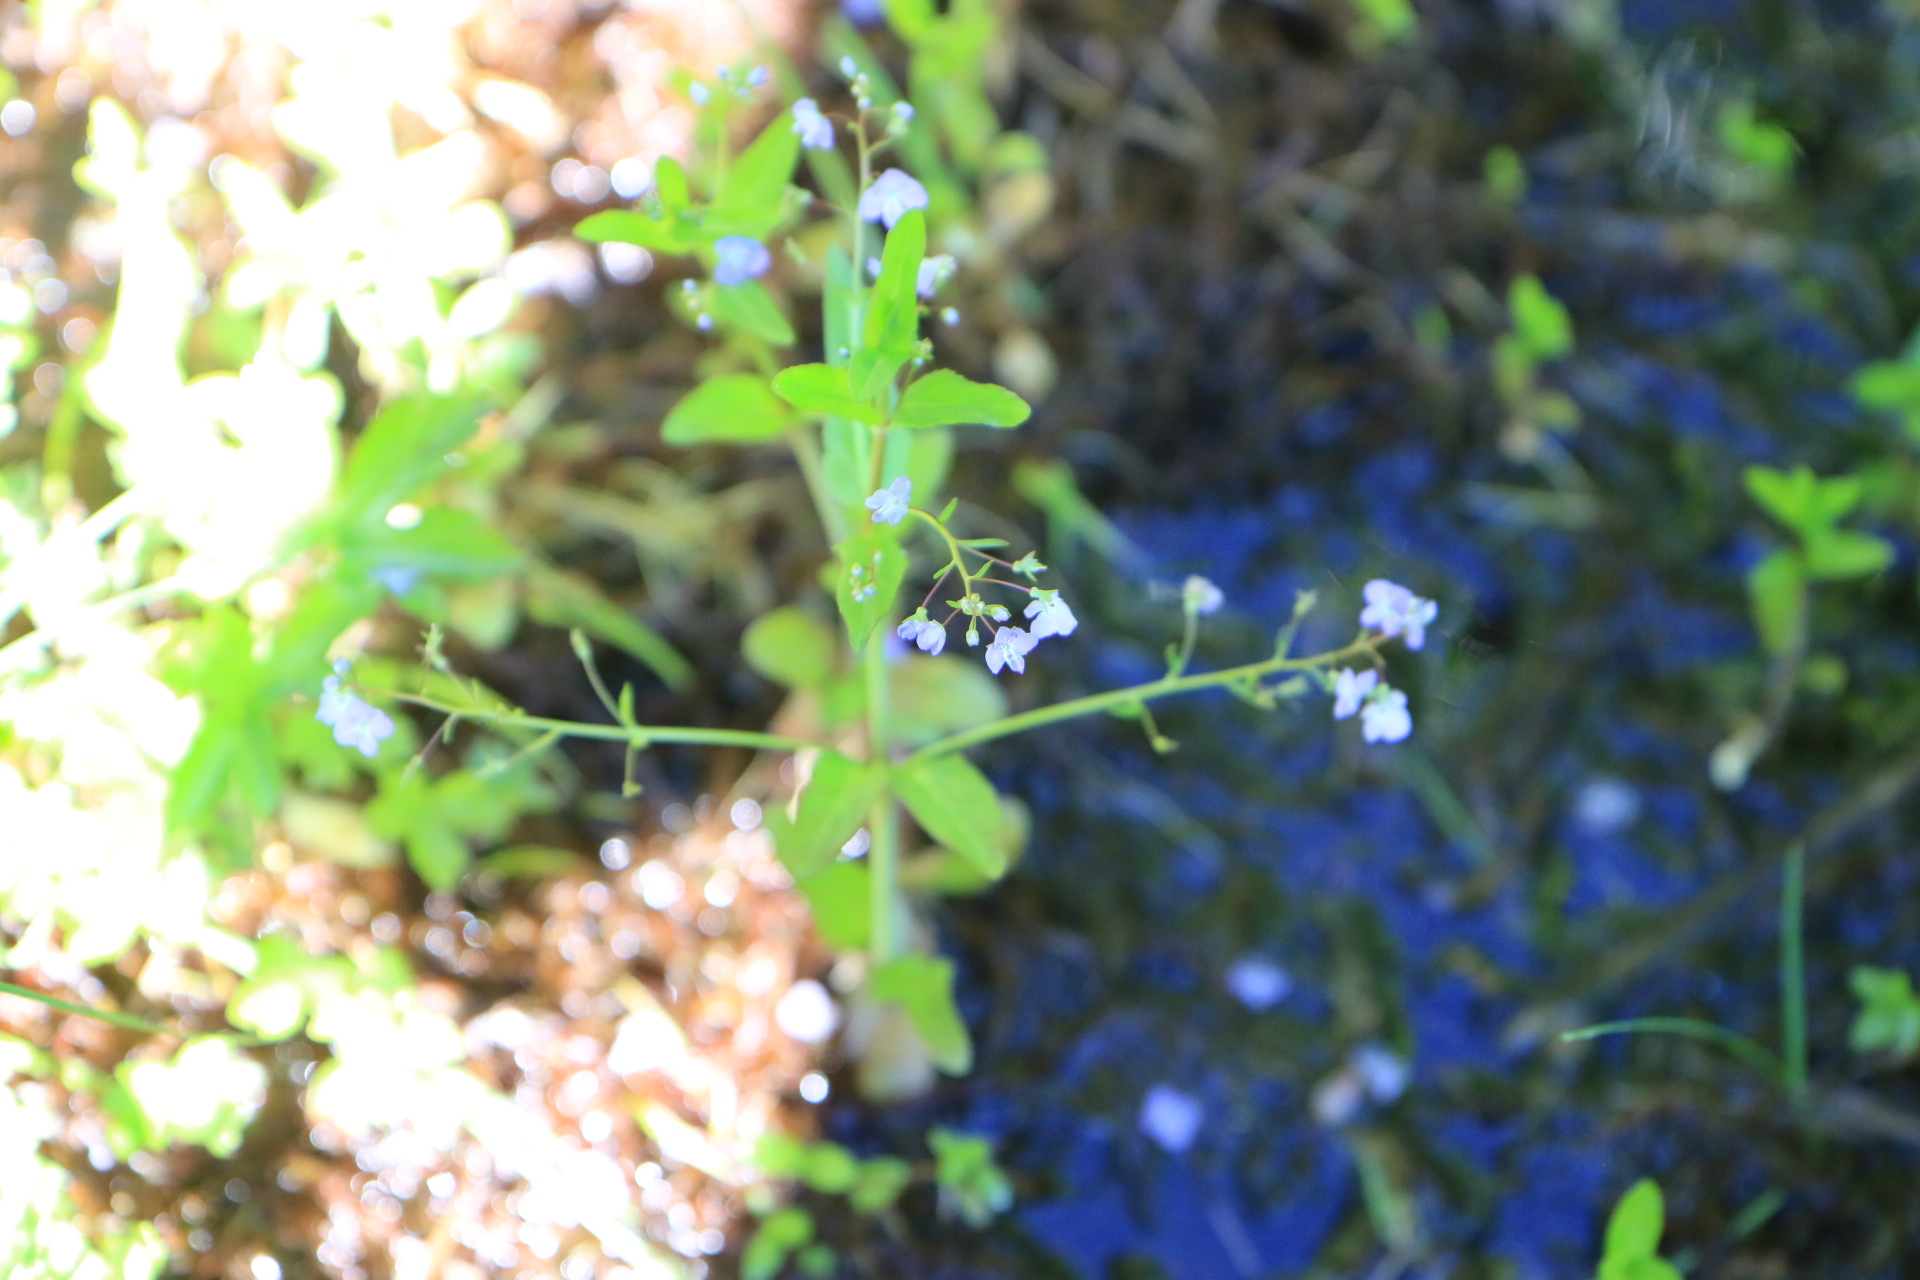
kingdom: Plantae
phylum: Tracheophyta
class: Magnoliopsida
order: Lamiales
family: Plantaginaceae
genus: Veronica
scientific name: Veronica americana
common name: American brooklime
